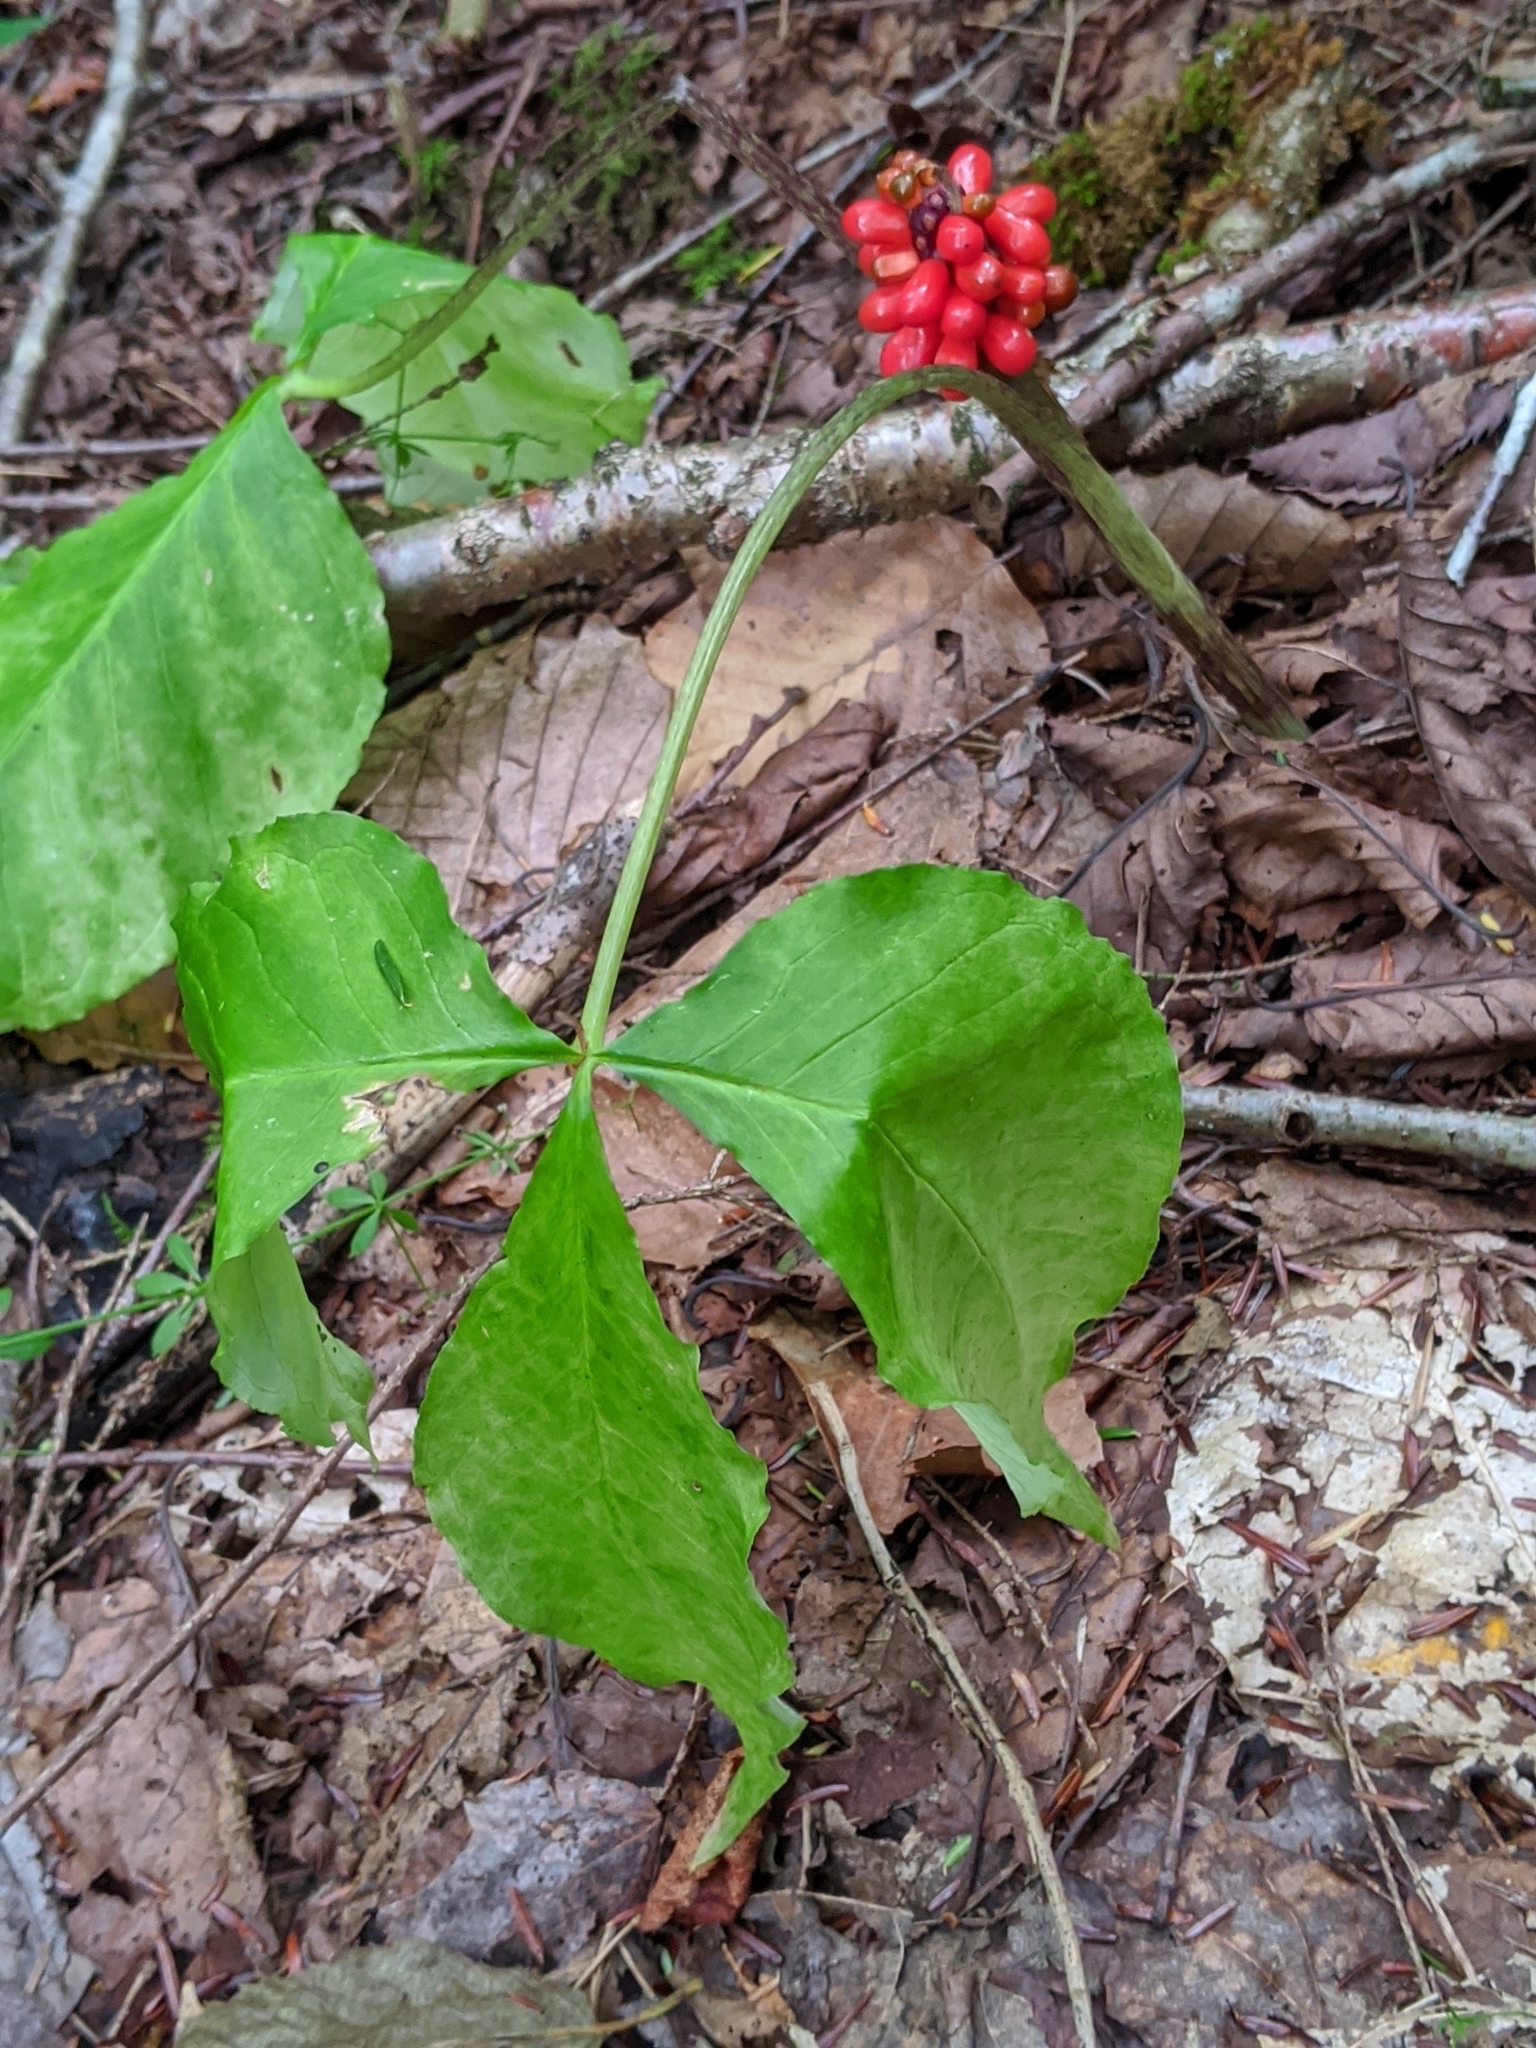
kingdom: Plantae
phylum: Tracheophyta
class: Liliopsida
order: Alismatales
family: Araceae
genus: Arisaema
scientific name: Arisaema triphyllum
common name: Jack-in-the-pulpit
